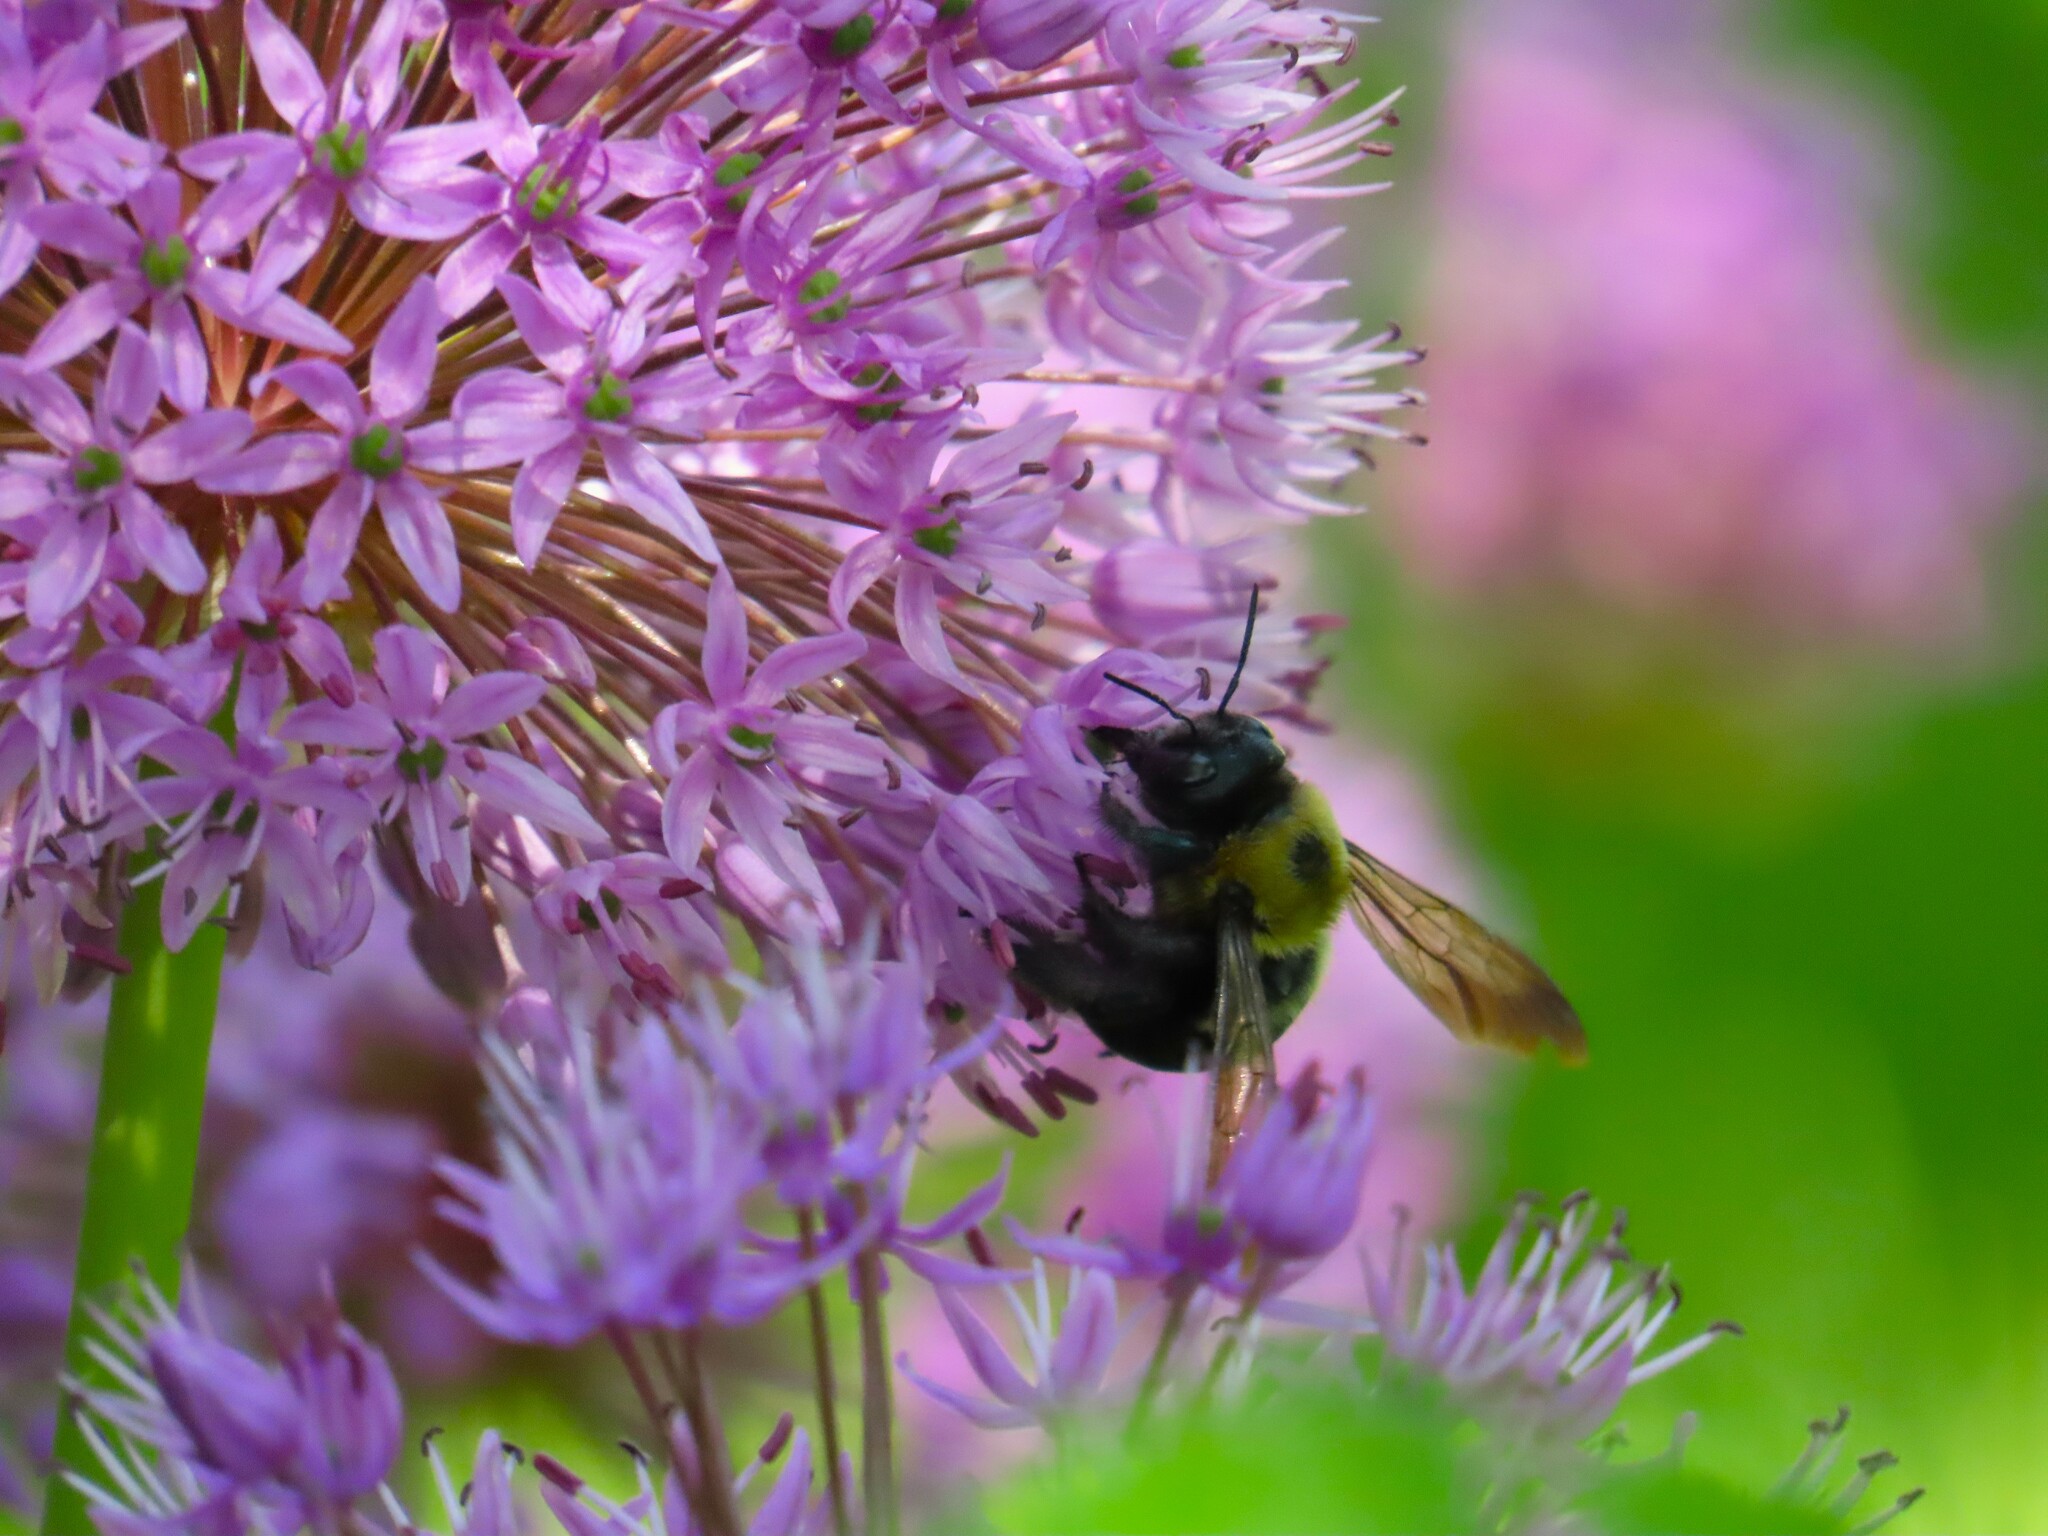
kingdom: Animalia
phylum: Arthropoda
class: Insecta
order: Hymenoptera
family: Apidae
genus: Xylocopa
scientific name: Xylocopa virginica
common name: Carpenter bee
